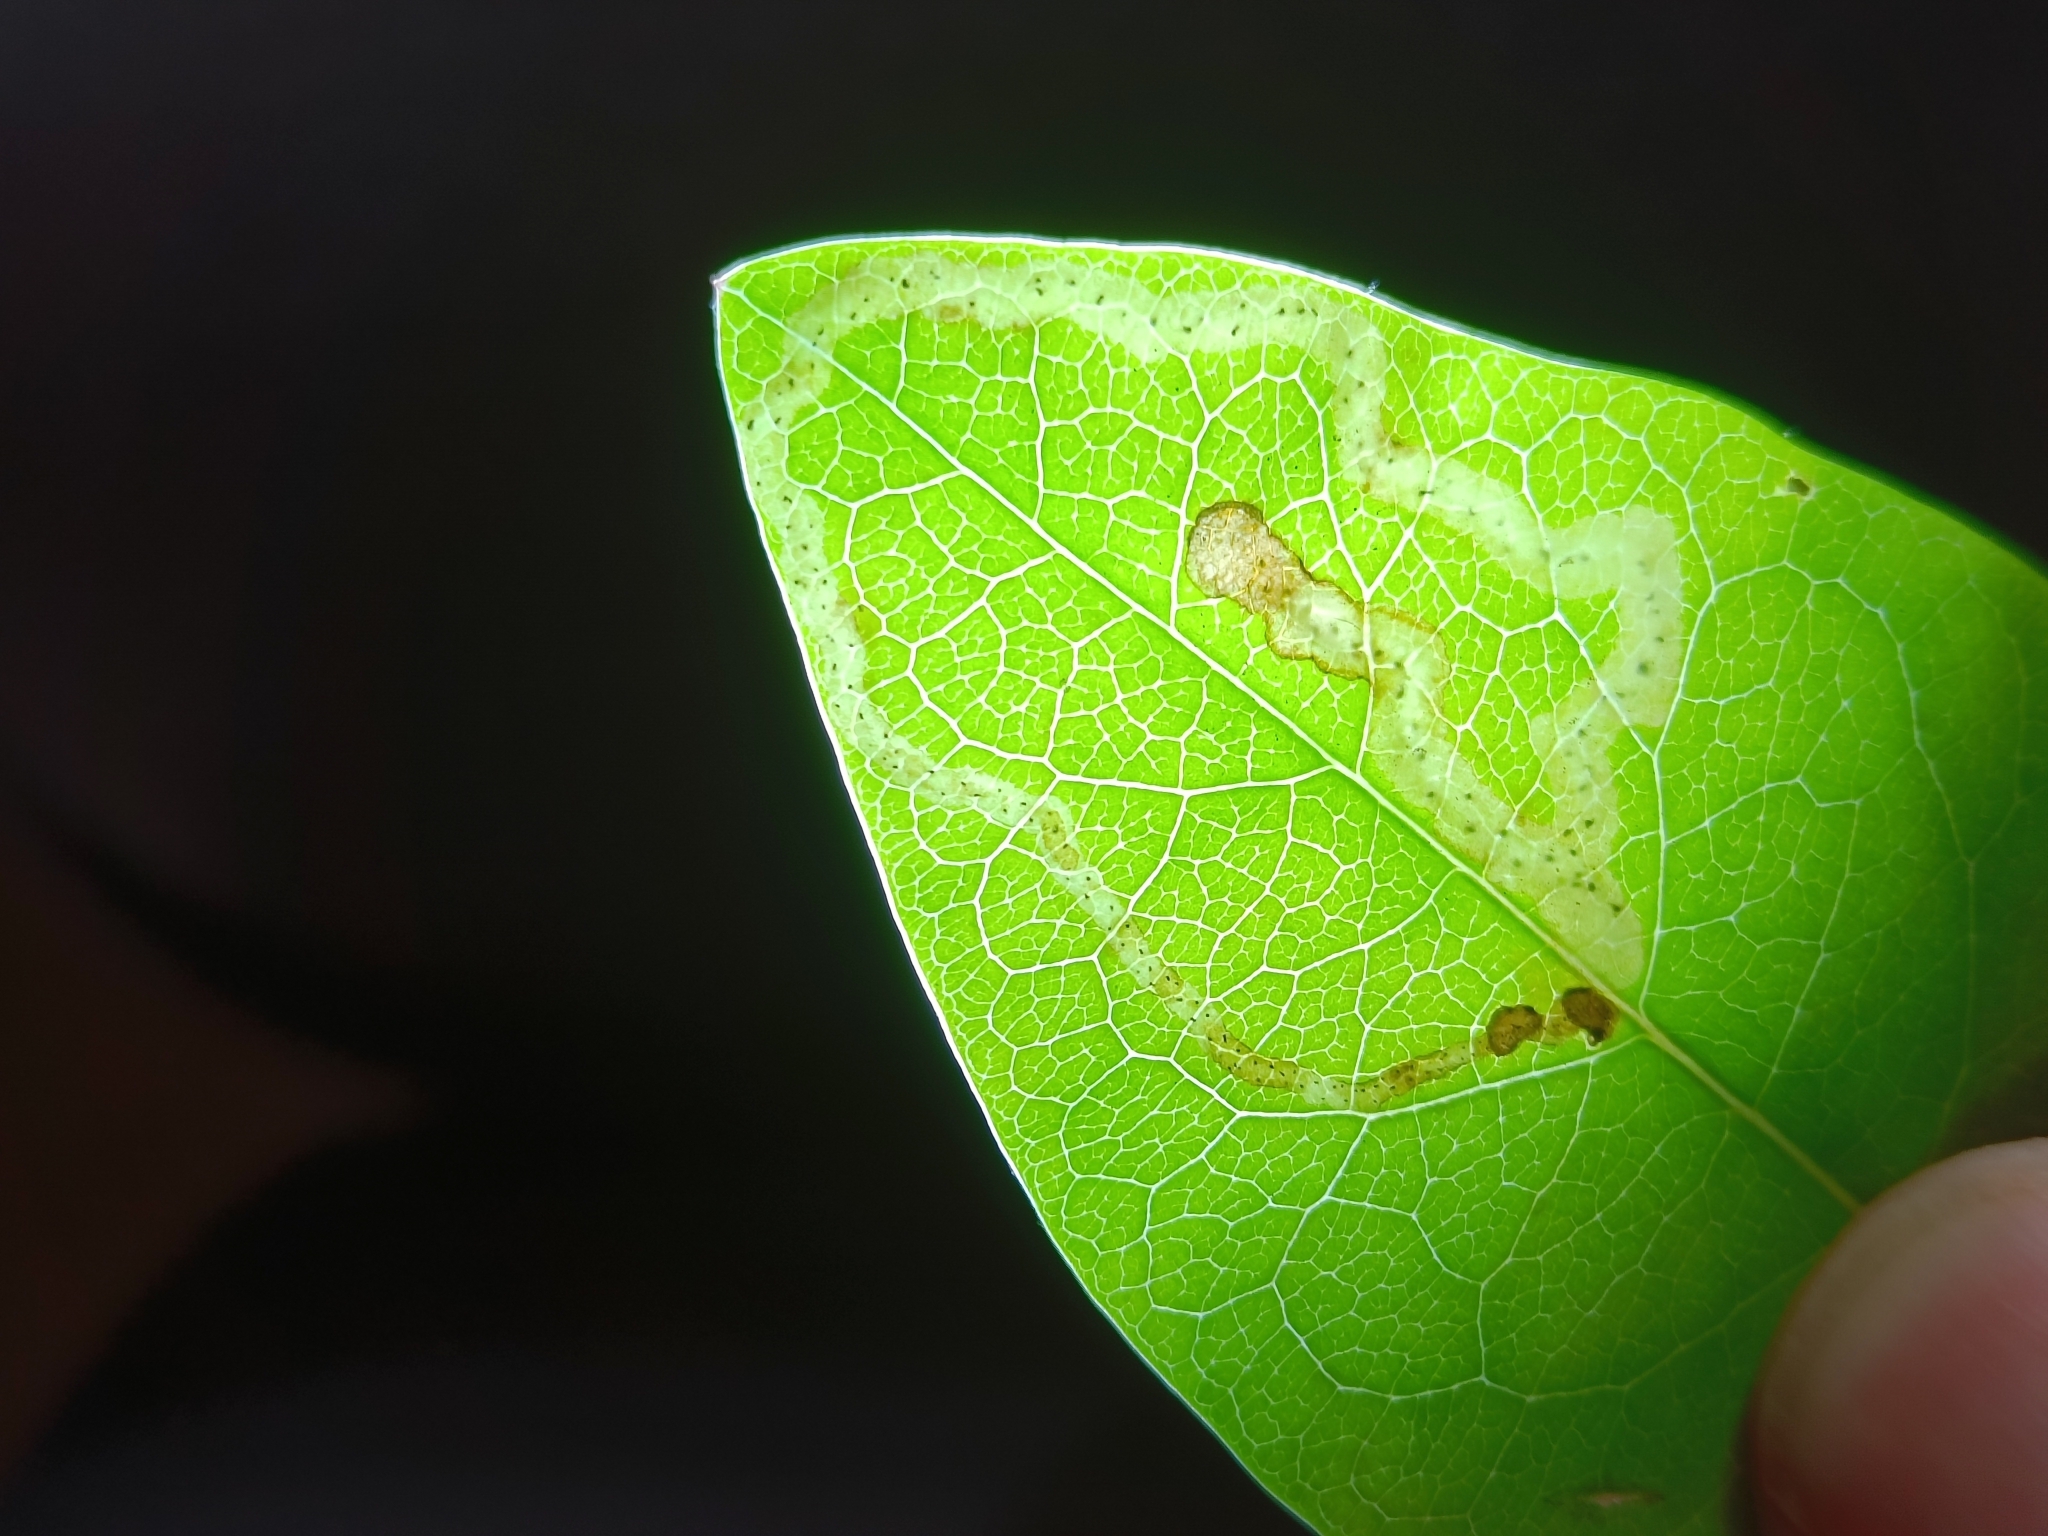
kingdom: Animalia
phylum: Arthropoda
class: Insecta
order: Diptera
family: Agromyzidae
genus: Aulagromyza
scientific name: Aulagromyza
